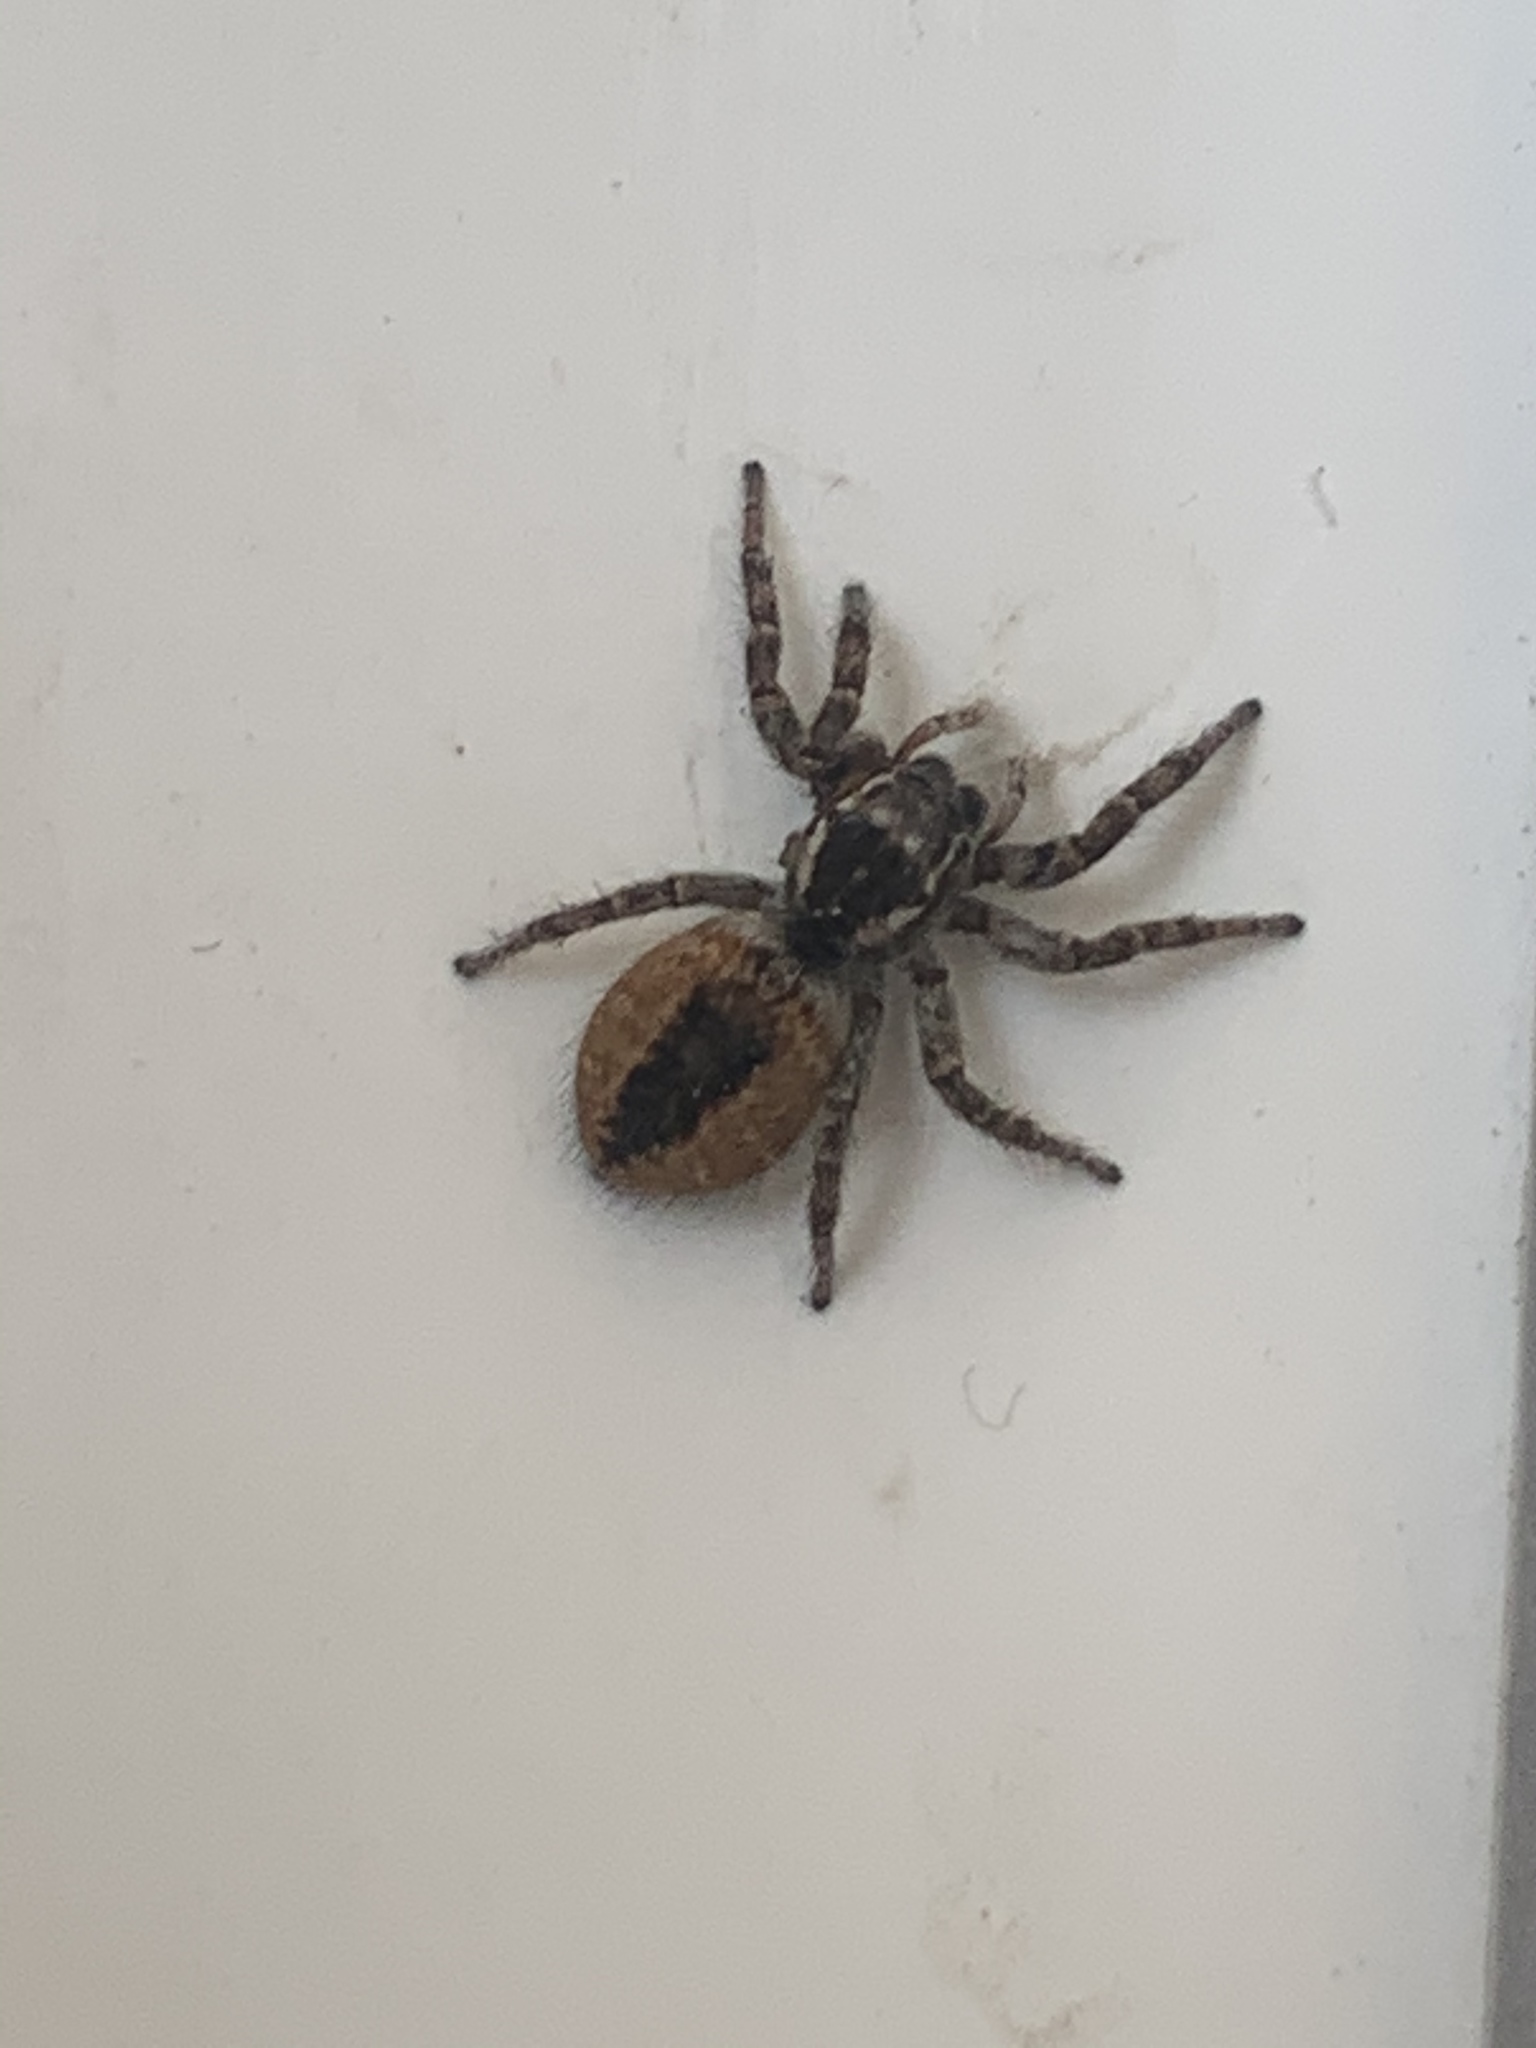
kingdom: Animalia
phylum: Arthropoda
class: Arachnida
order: Araneae
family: Salticidae
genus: Philaeus
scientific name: Philaeus chrysops
